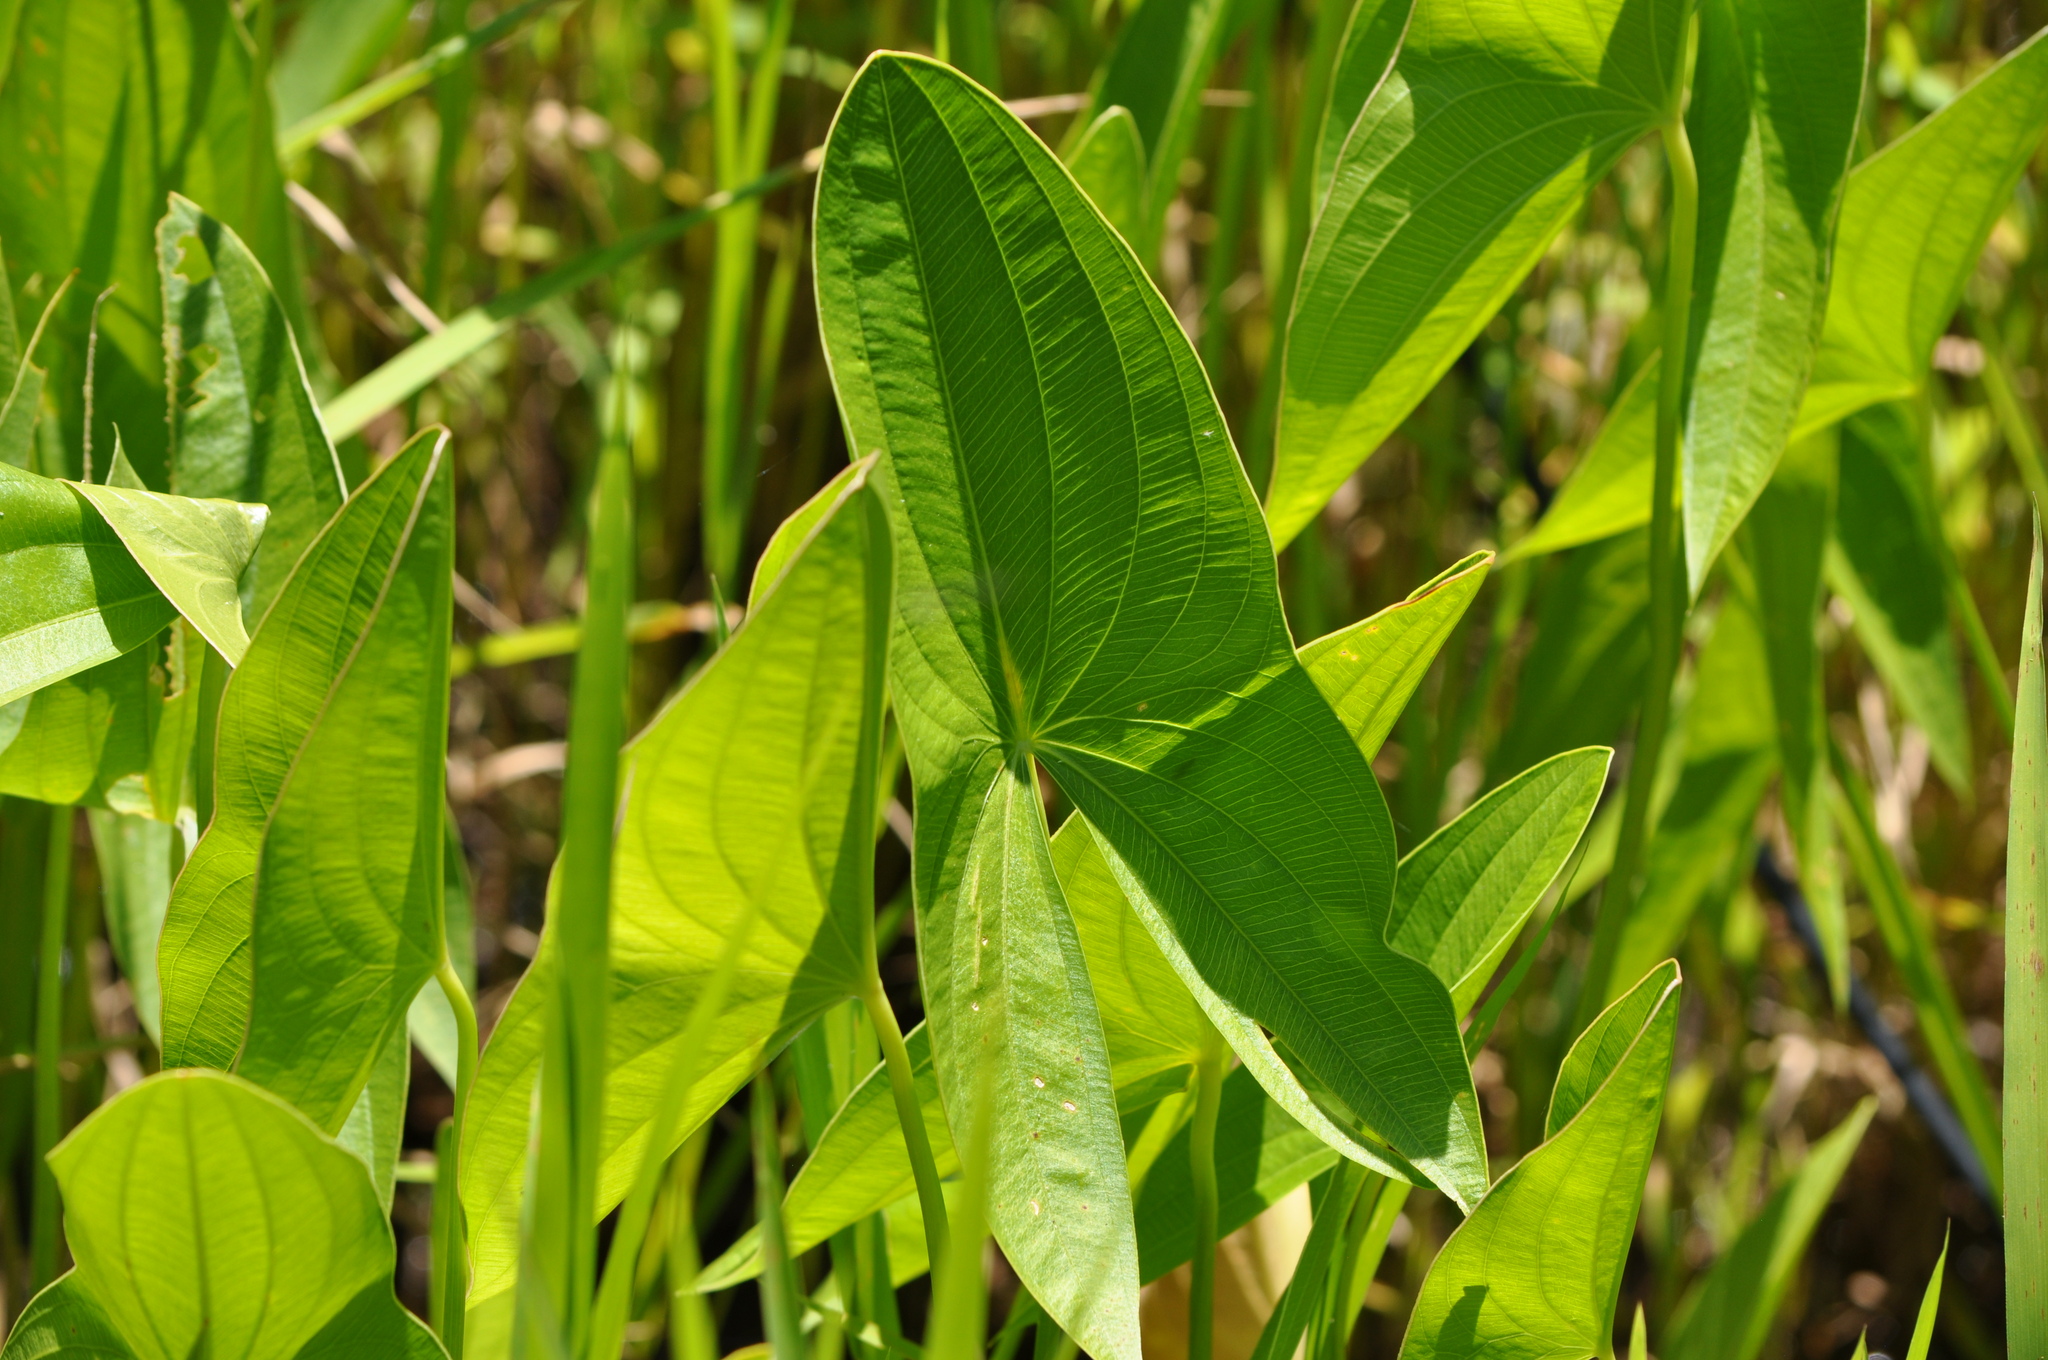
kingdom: Plantae
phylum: Tracheophyta
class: Liliopsida
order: Alismatales
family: Alismataceae
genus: Sagittaria
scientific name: Sagittaria latifolia
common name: Duck-potato
